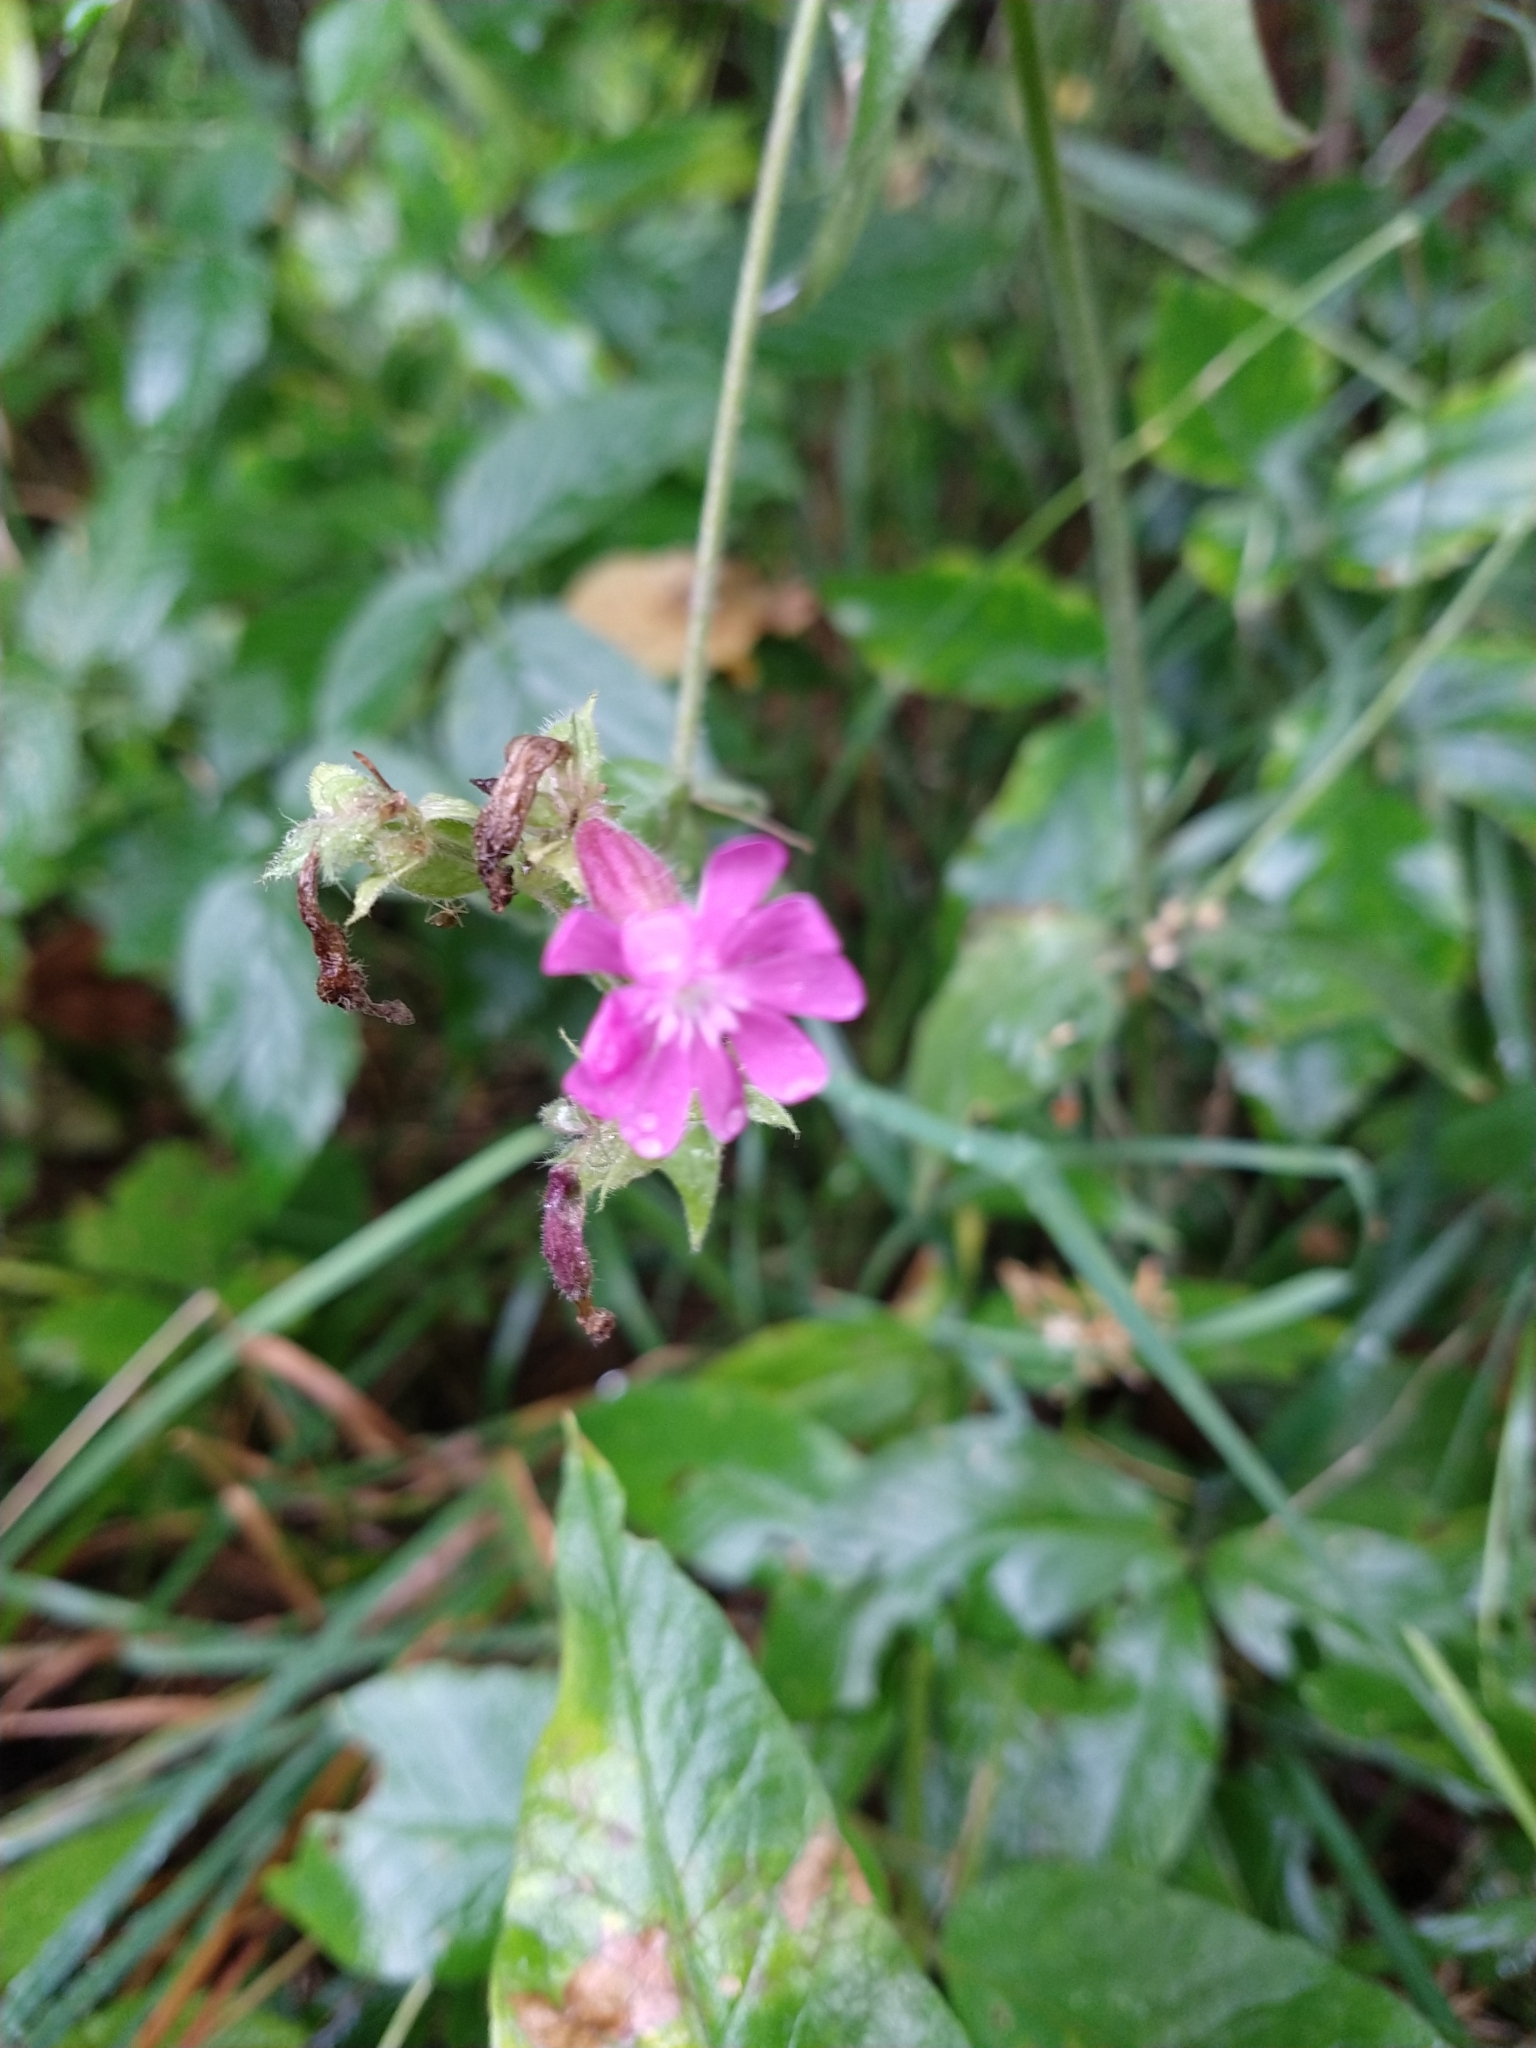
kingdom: Plantae
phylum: Tracheophyta
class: Magnoliopsida
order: Caryophyllales
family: Caryophyllaceae
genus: Silene
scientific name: Silene dioica
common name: Red campion
